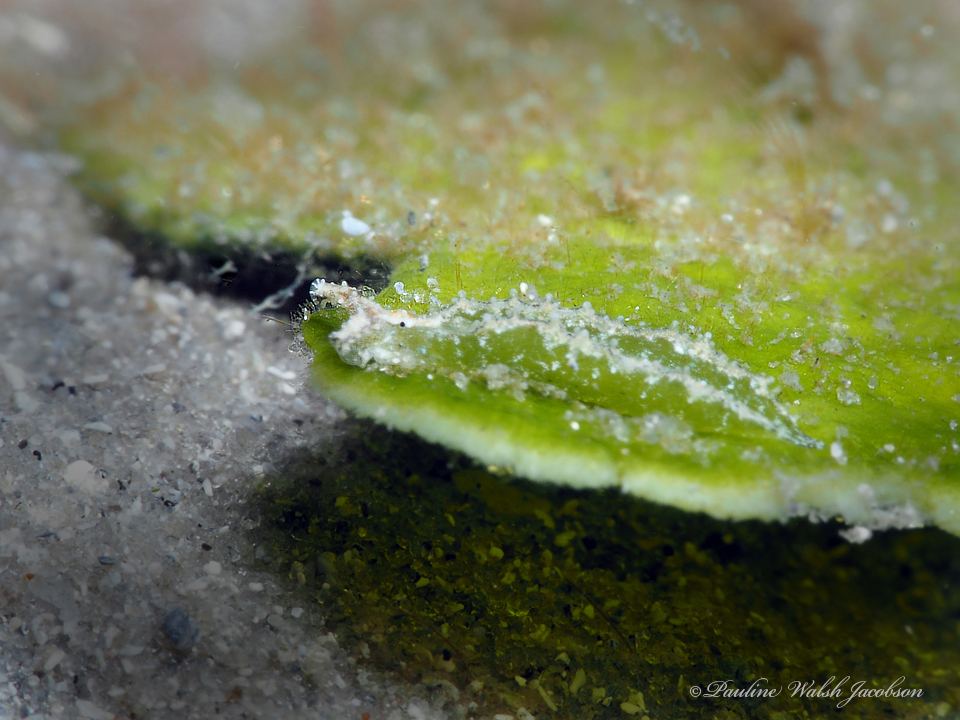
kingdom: Animalia
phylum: Mollusca
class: Gastropoda
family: Plakobranchidae
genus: Elysia
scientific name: Elysia zuleicae
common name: Zuleica's elysia
